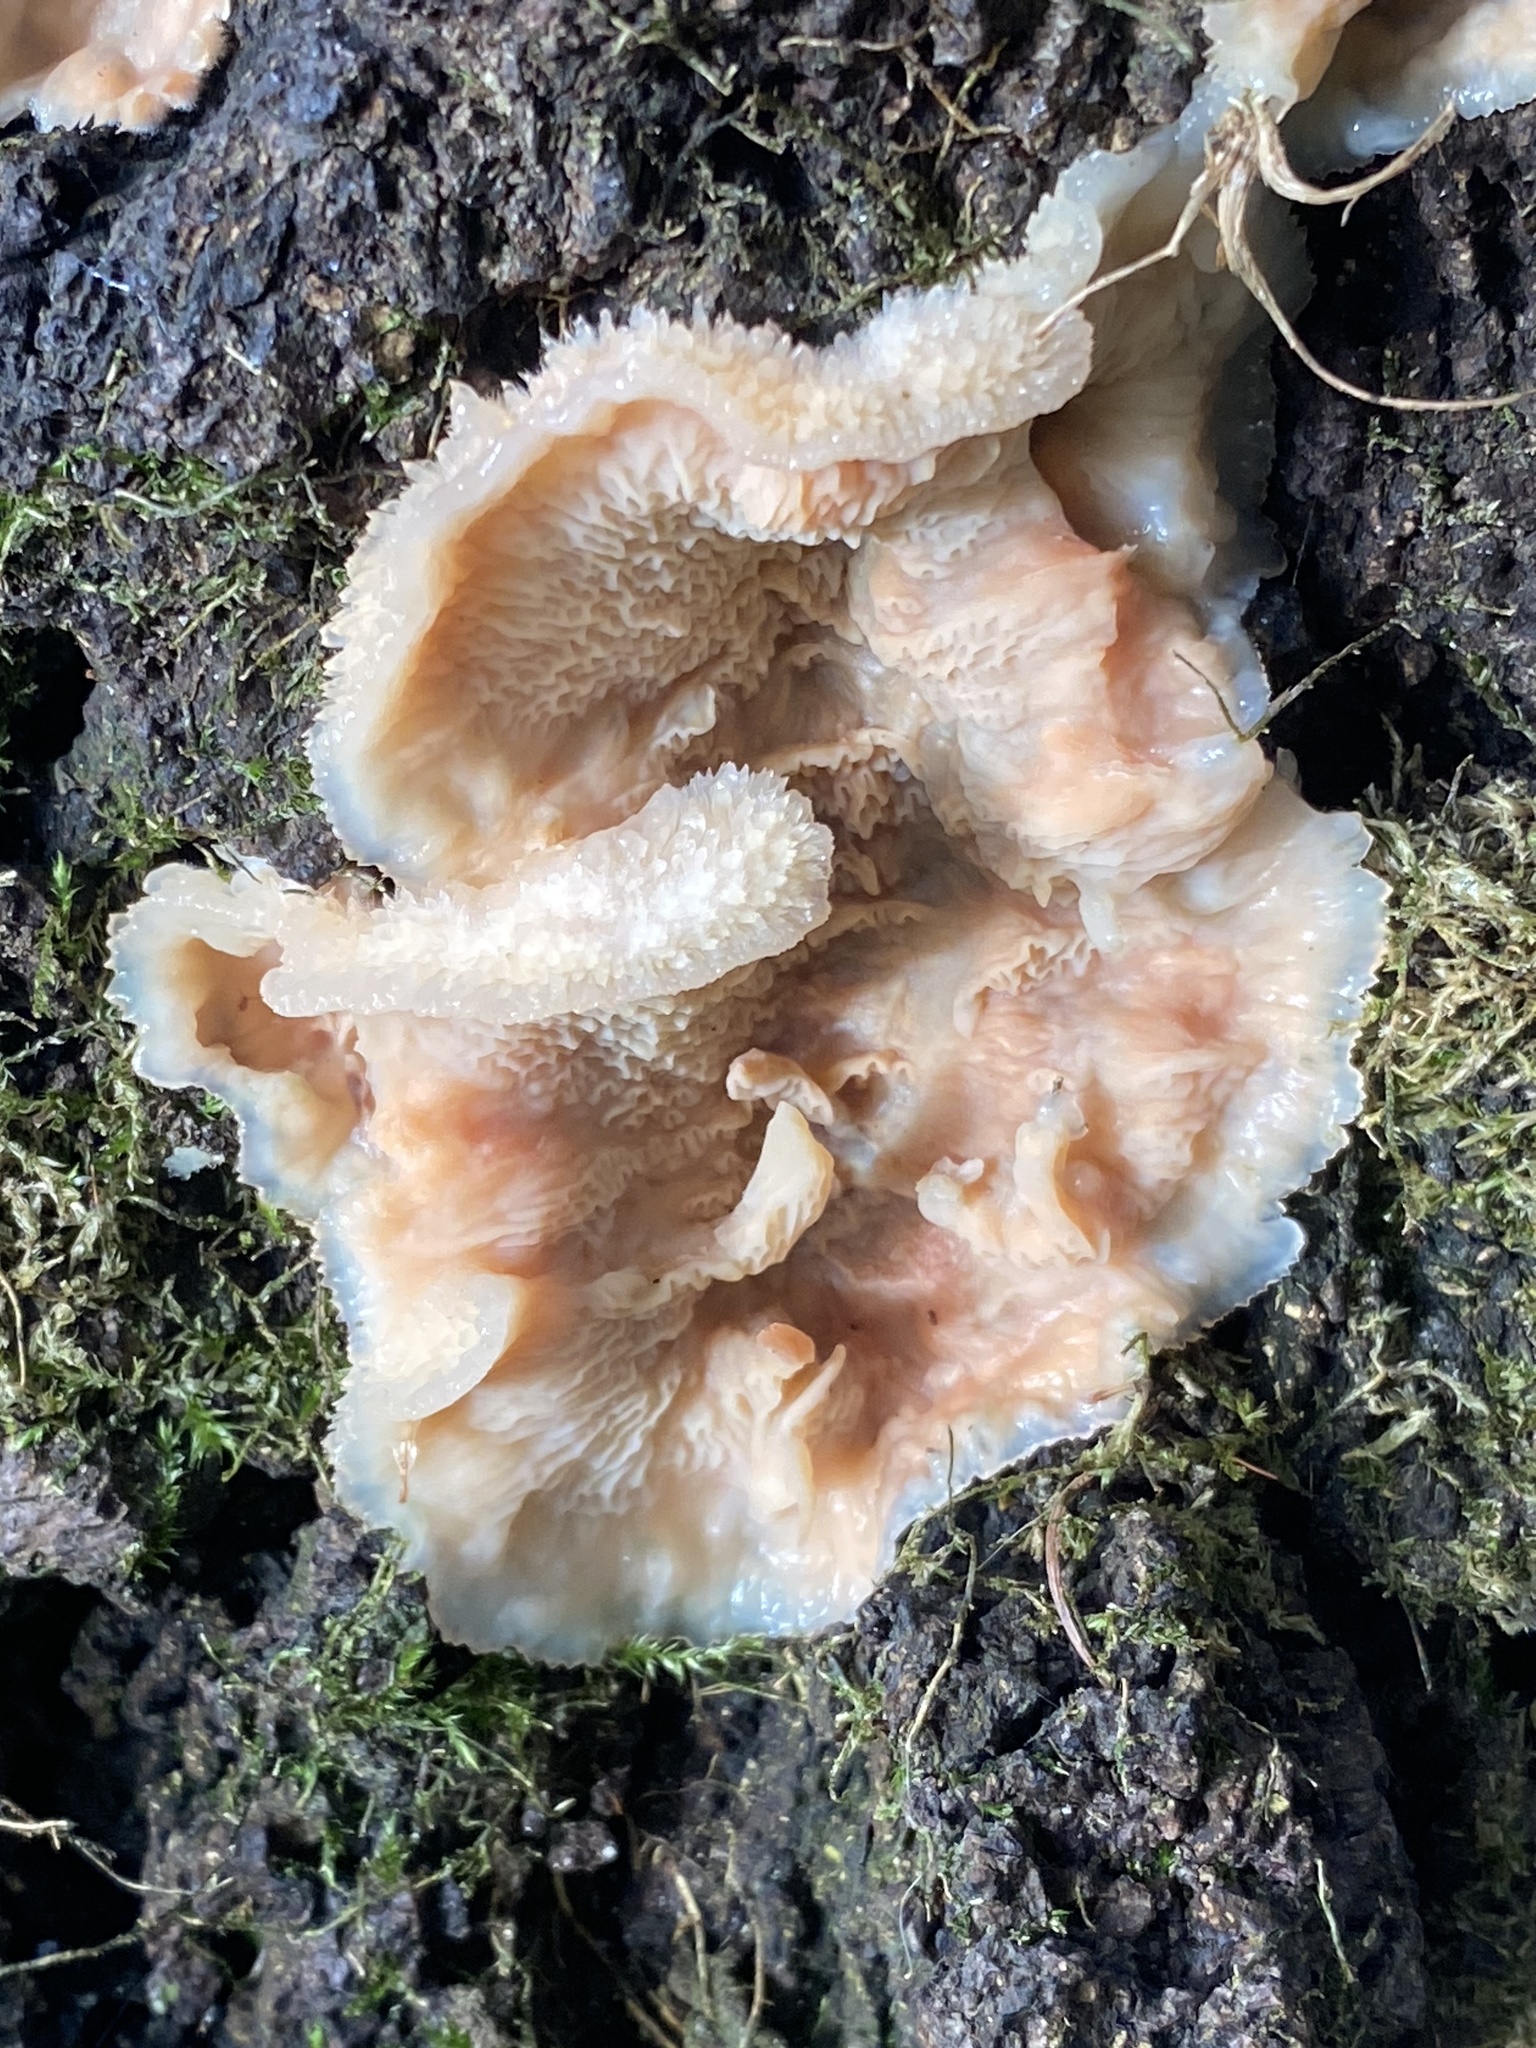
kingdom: Fungi
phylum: Basidiomycota
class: Agaricomycetes
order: Polyporales
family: Meruliaceae
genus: Phlebia
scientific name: Phlebia tremellosa
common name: Jelly rot
